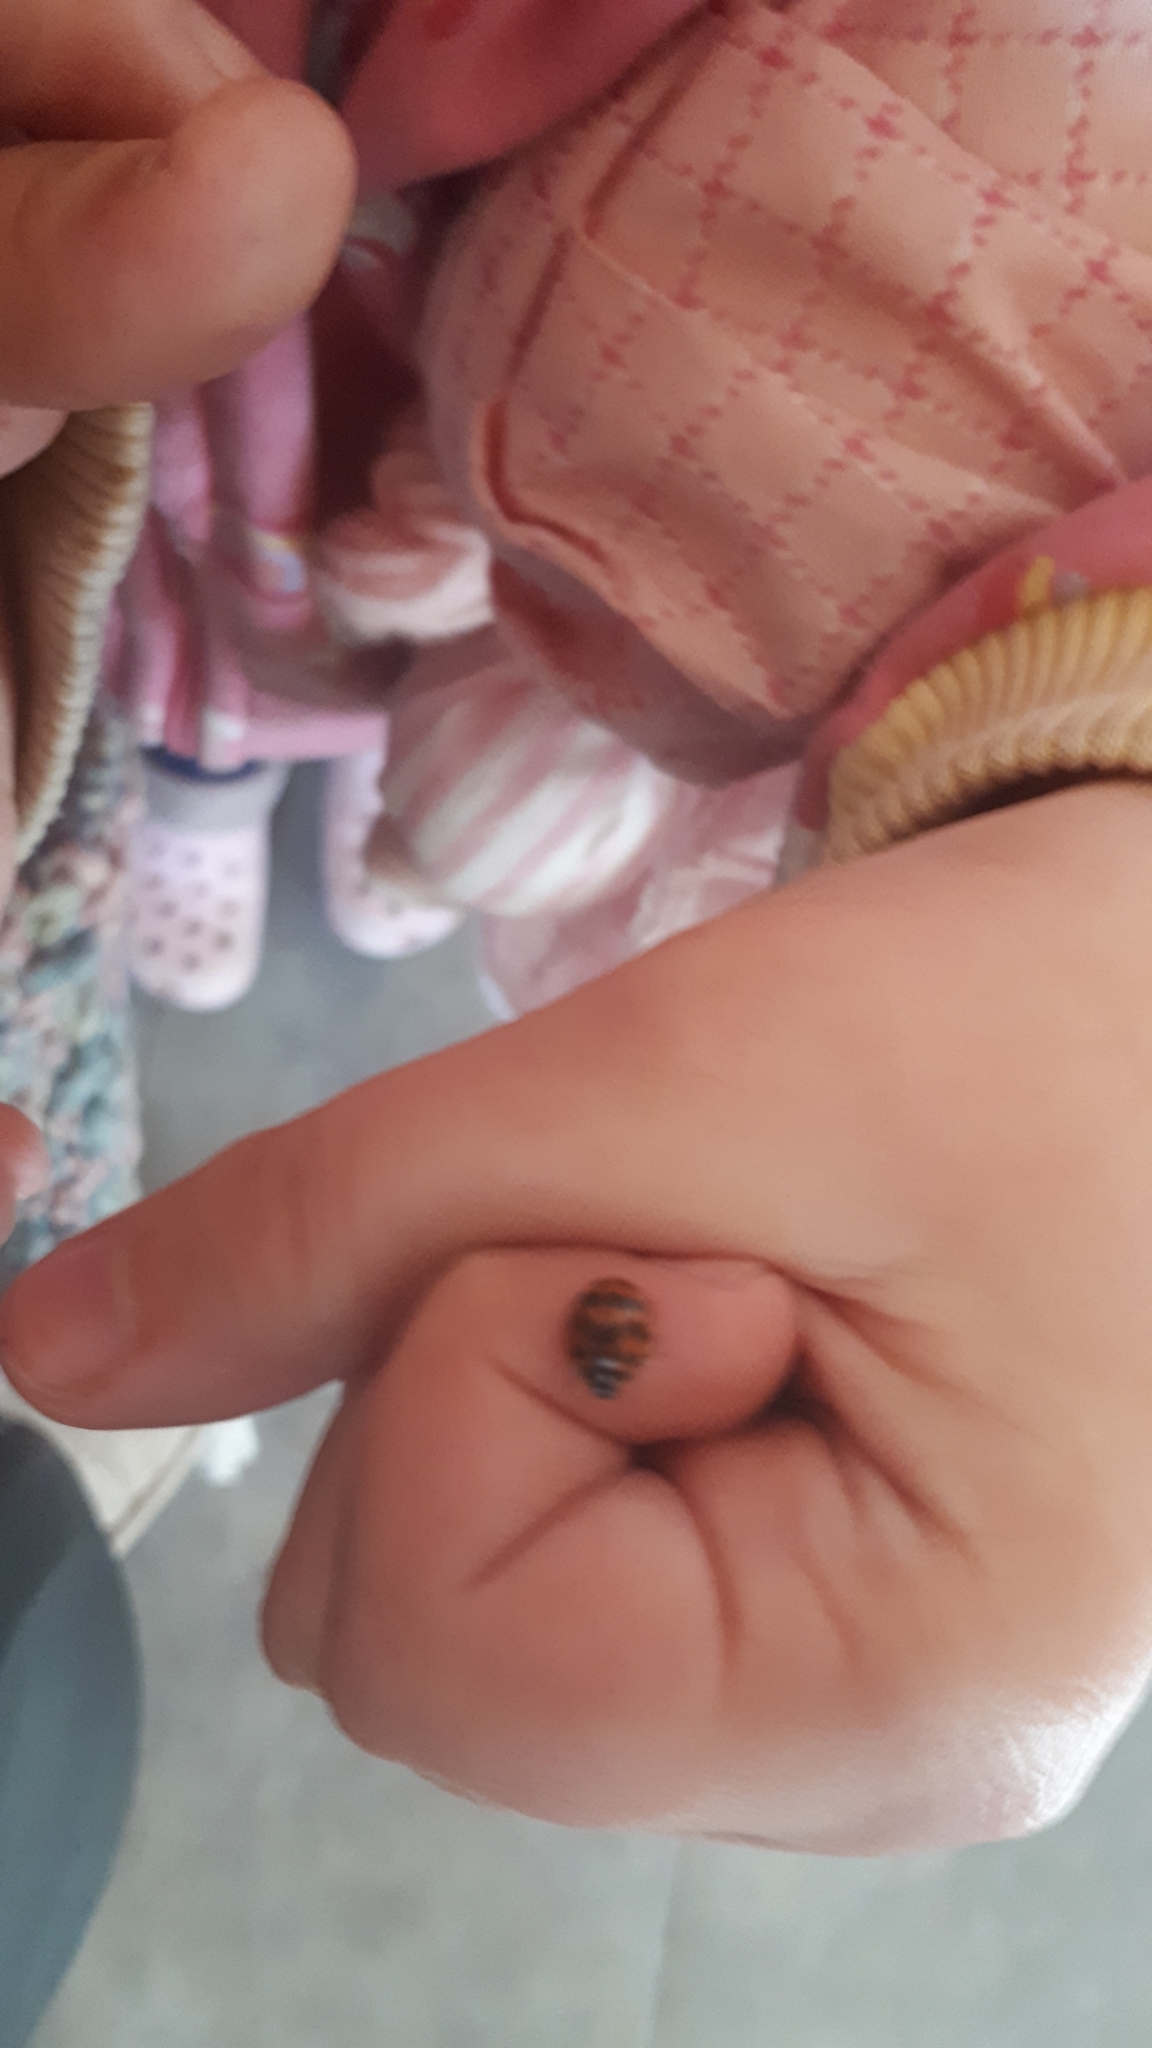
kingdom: Animalia
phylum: Arthropoda
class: Insecta
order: Coleoptera
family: Coccinellidae
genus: Harmonia
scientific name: Harmonia axyridis
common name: Harlequin ladybird
